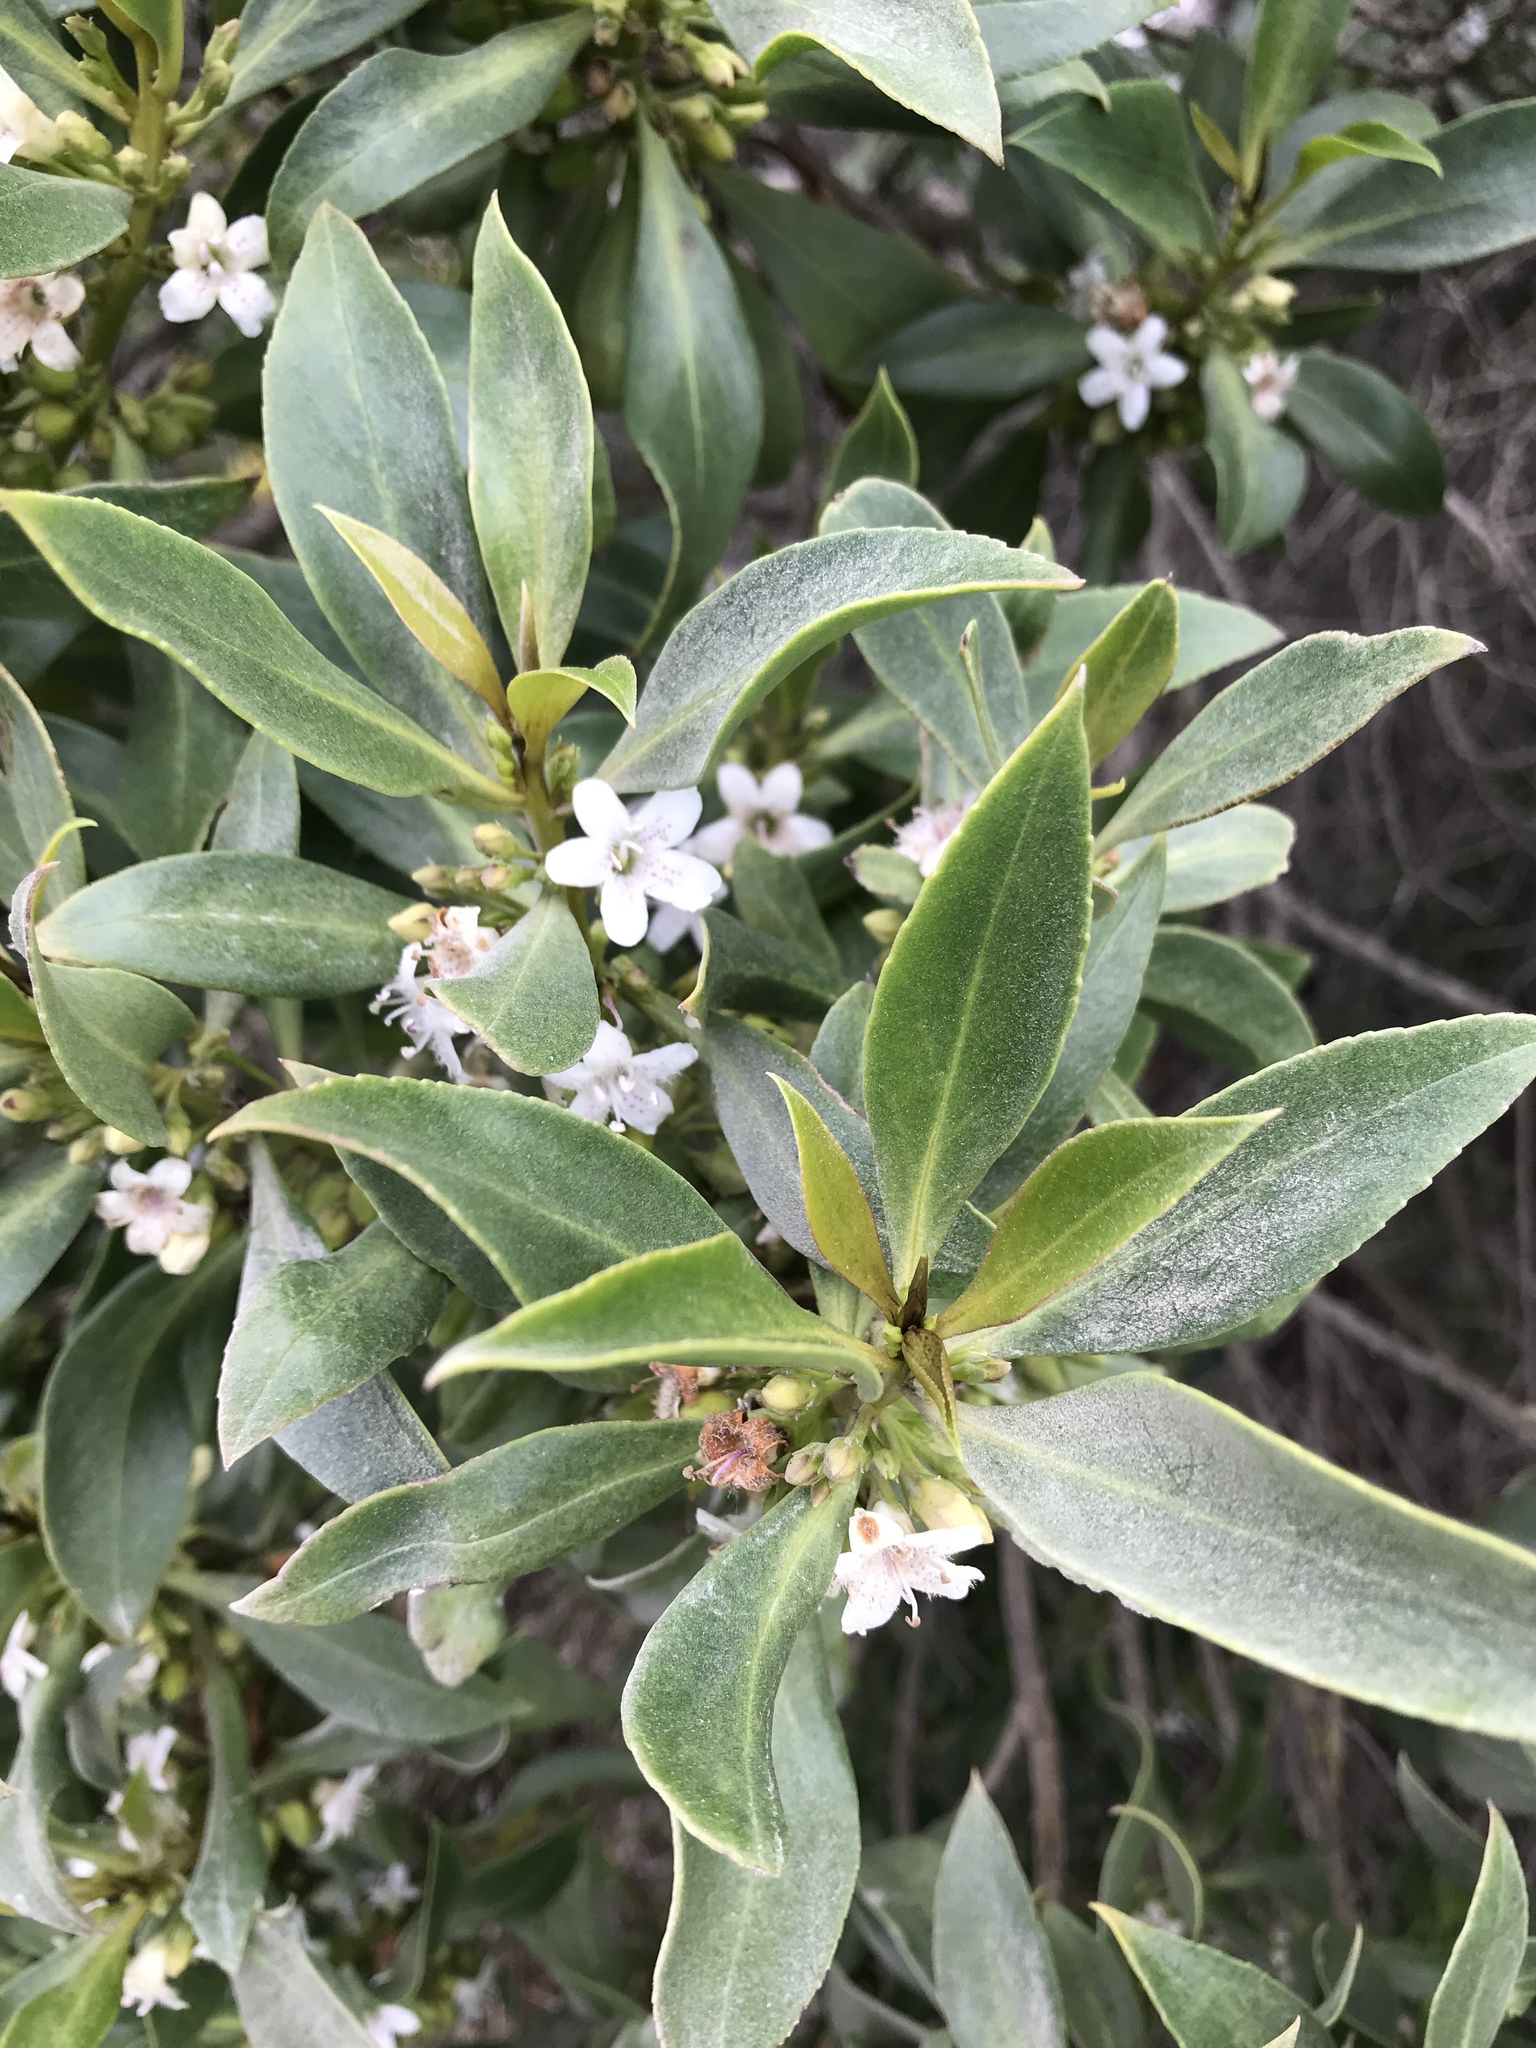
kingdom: Plantae
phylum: Tracheophyta
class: Magnoliopsida
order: Lamiales
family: Scrophulariaceae
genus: Myoporum
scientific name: Myoporum laetum
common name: Ngaio tree
